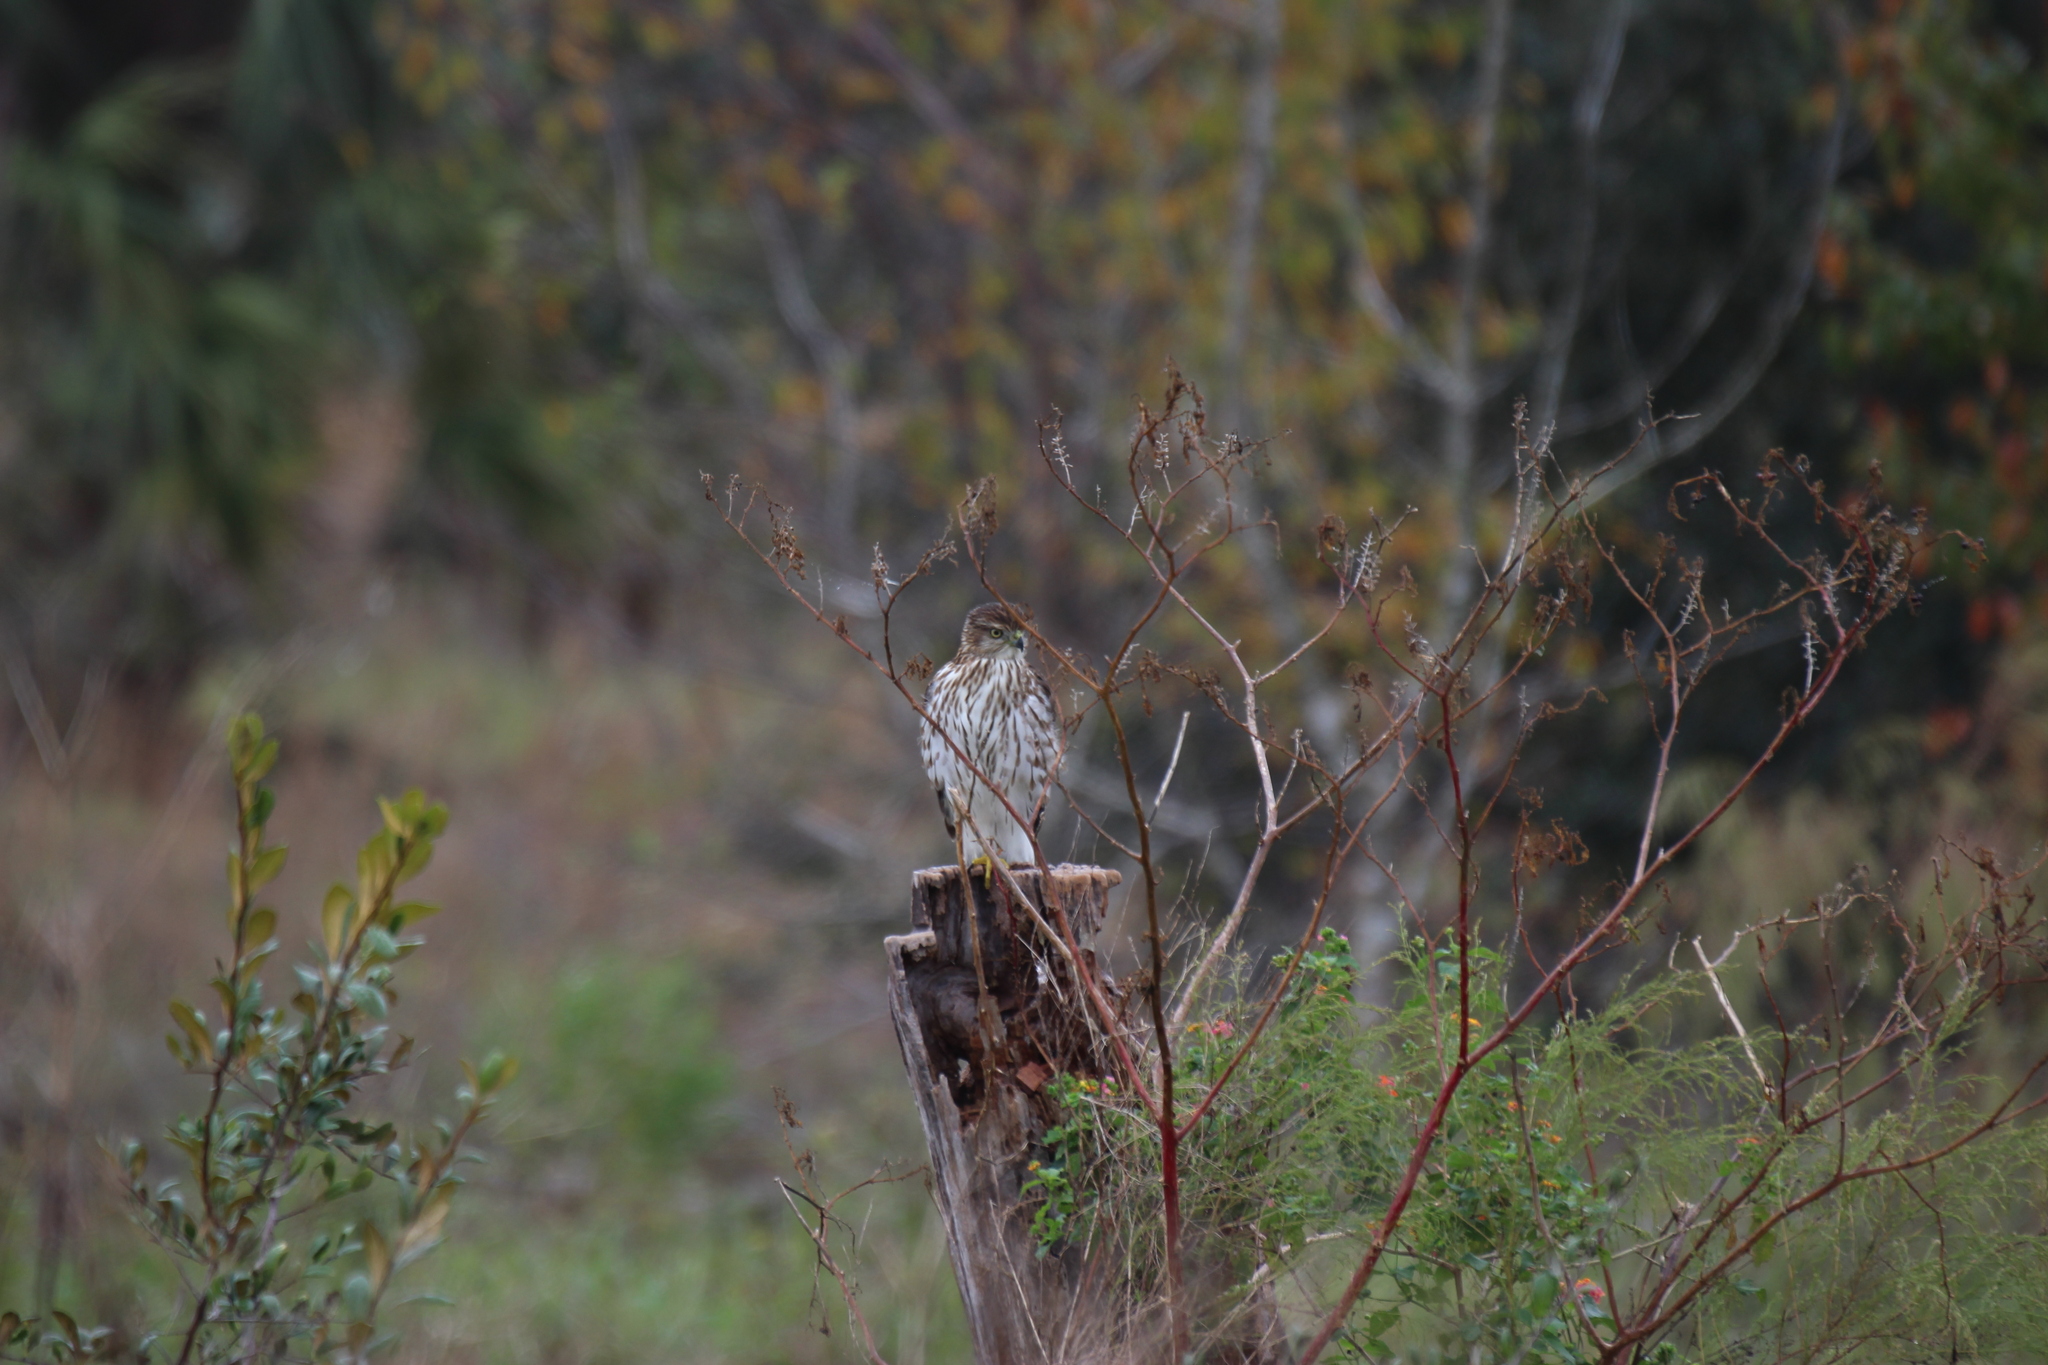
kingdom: Animalia
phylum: Chordata
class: Aves
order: Accipitriformes
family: Accipitridae
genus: Accipiter
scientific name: Accipiter cooperii
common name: Cooper's hawk
